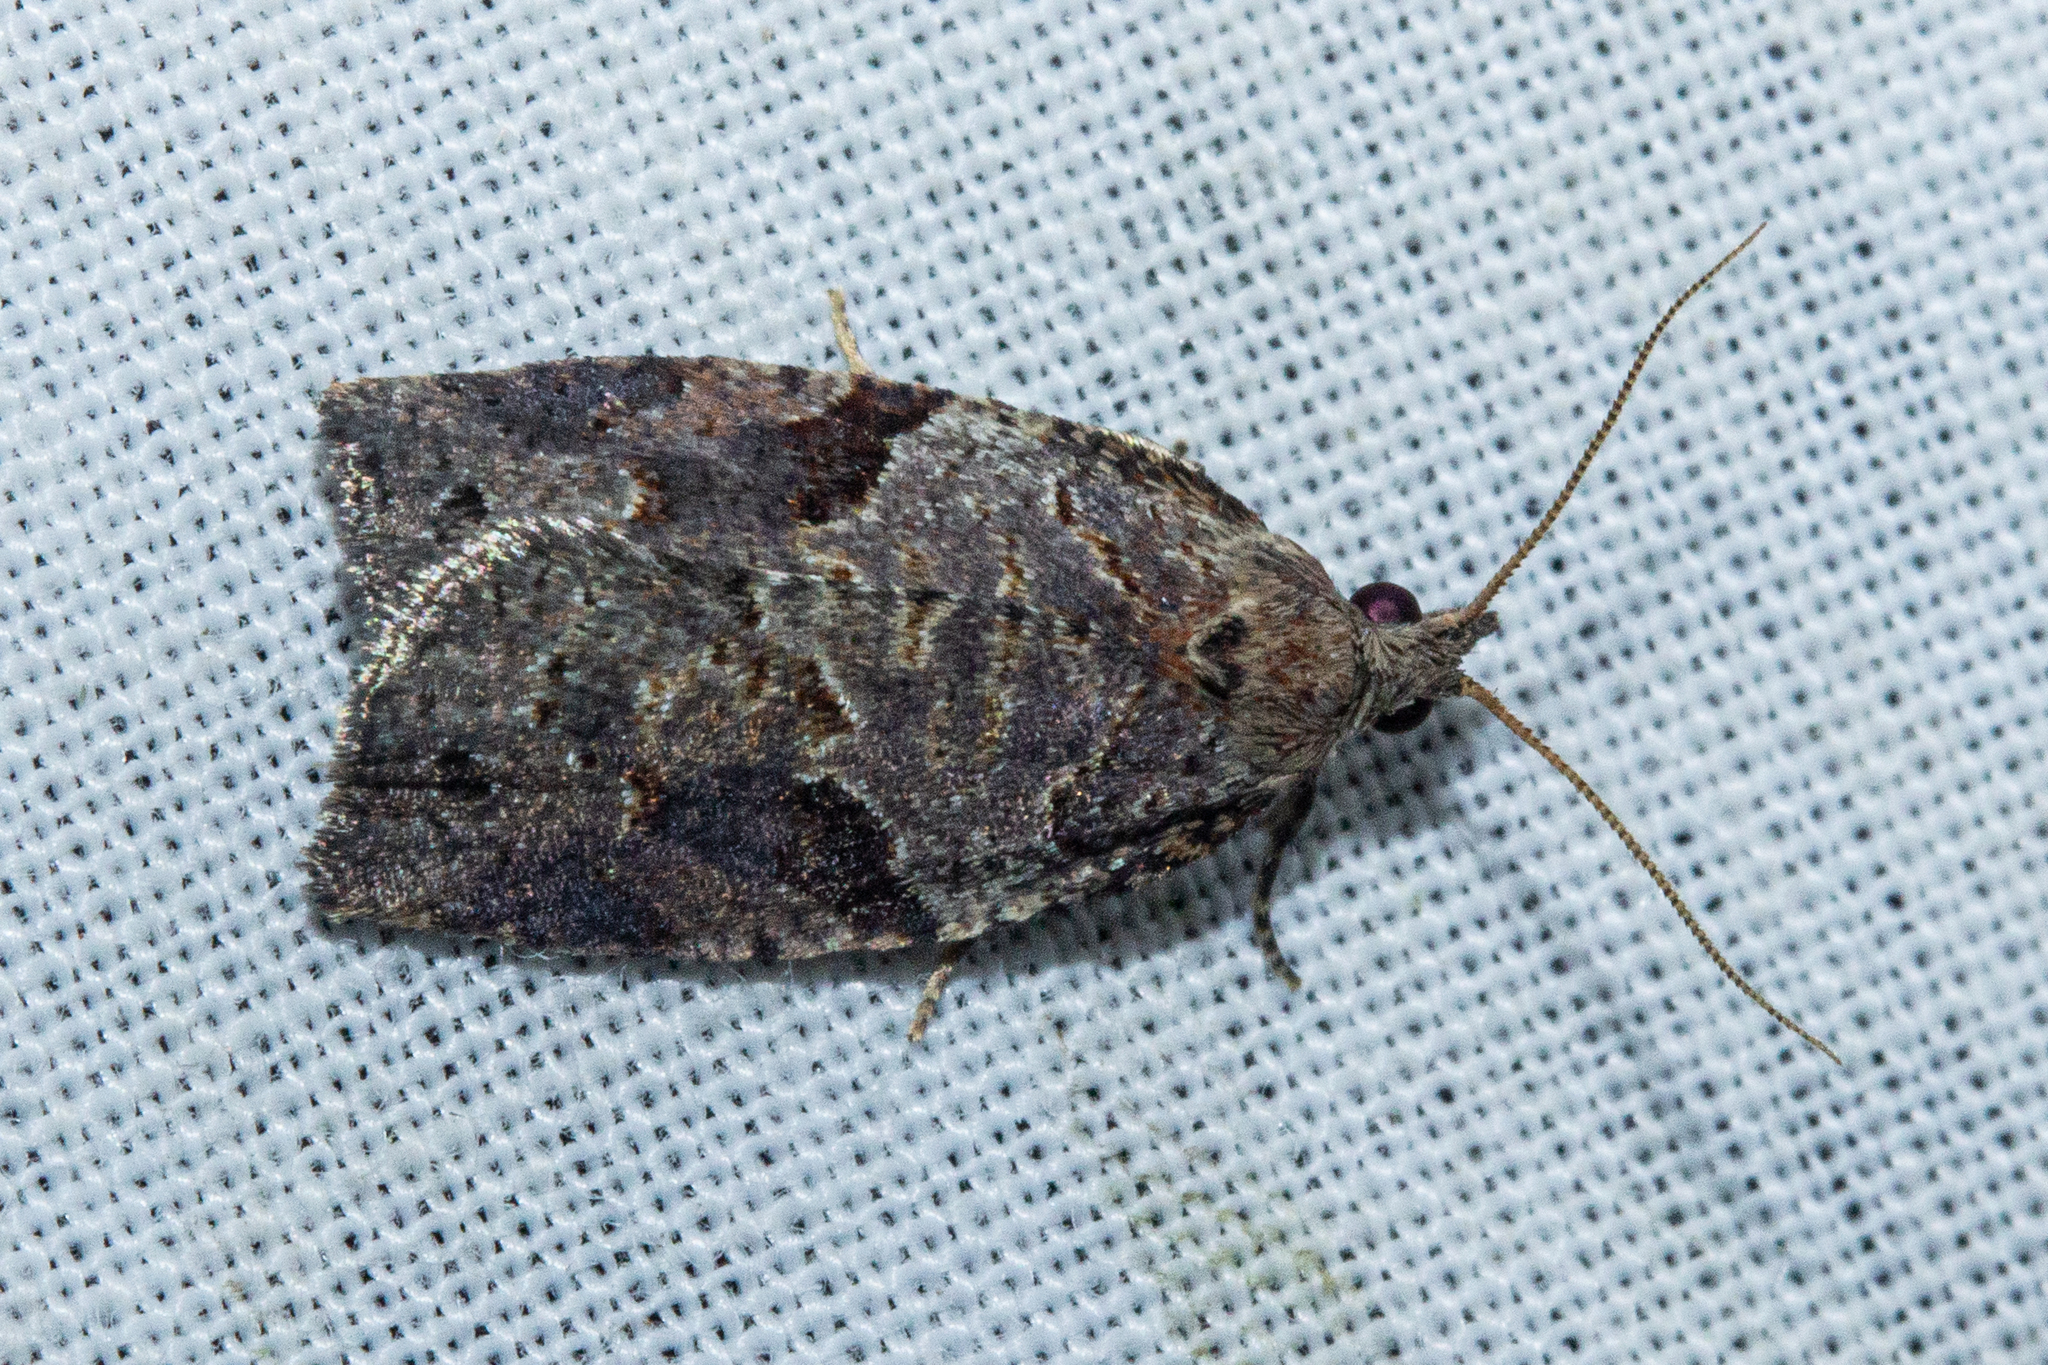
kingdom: Animalia
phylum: Arthropoda
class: Insecta
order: Lepidoptera
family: Tortricidae
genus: Apoctena
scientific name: Apoctena orthropis
